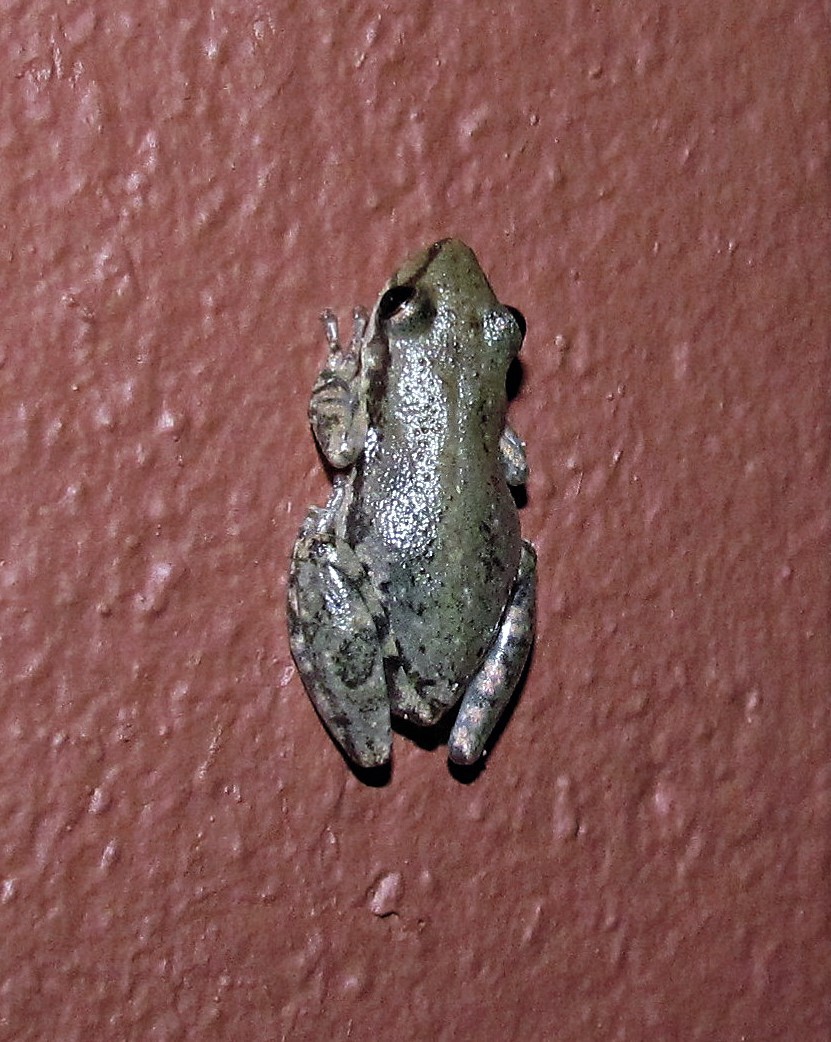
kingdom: Animalia
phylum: Chordata
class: Amphibia
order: Anura
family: Hylidae
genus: Scinax
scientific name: Scinax nasicus
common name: Lesser snouted treefrog
